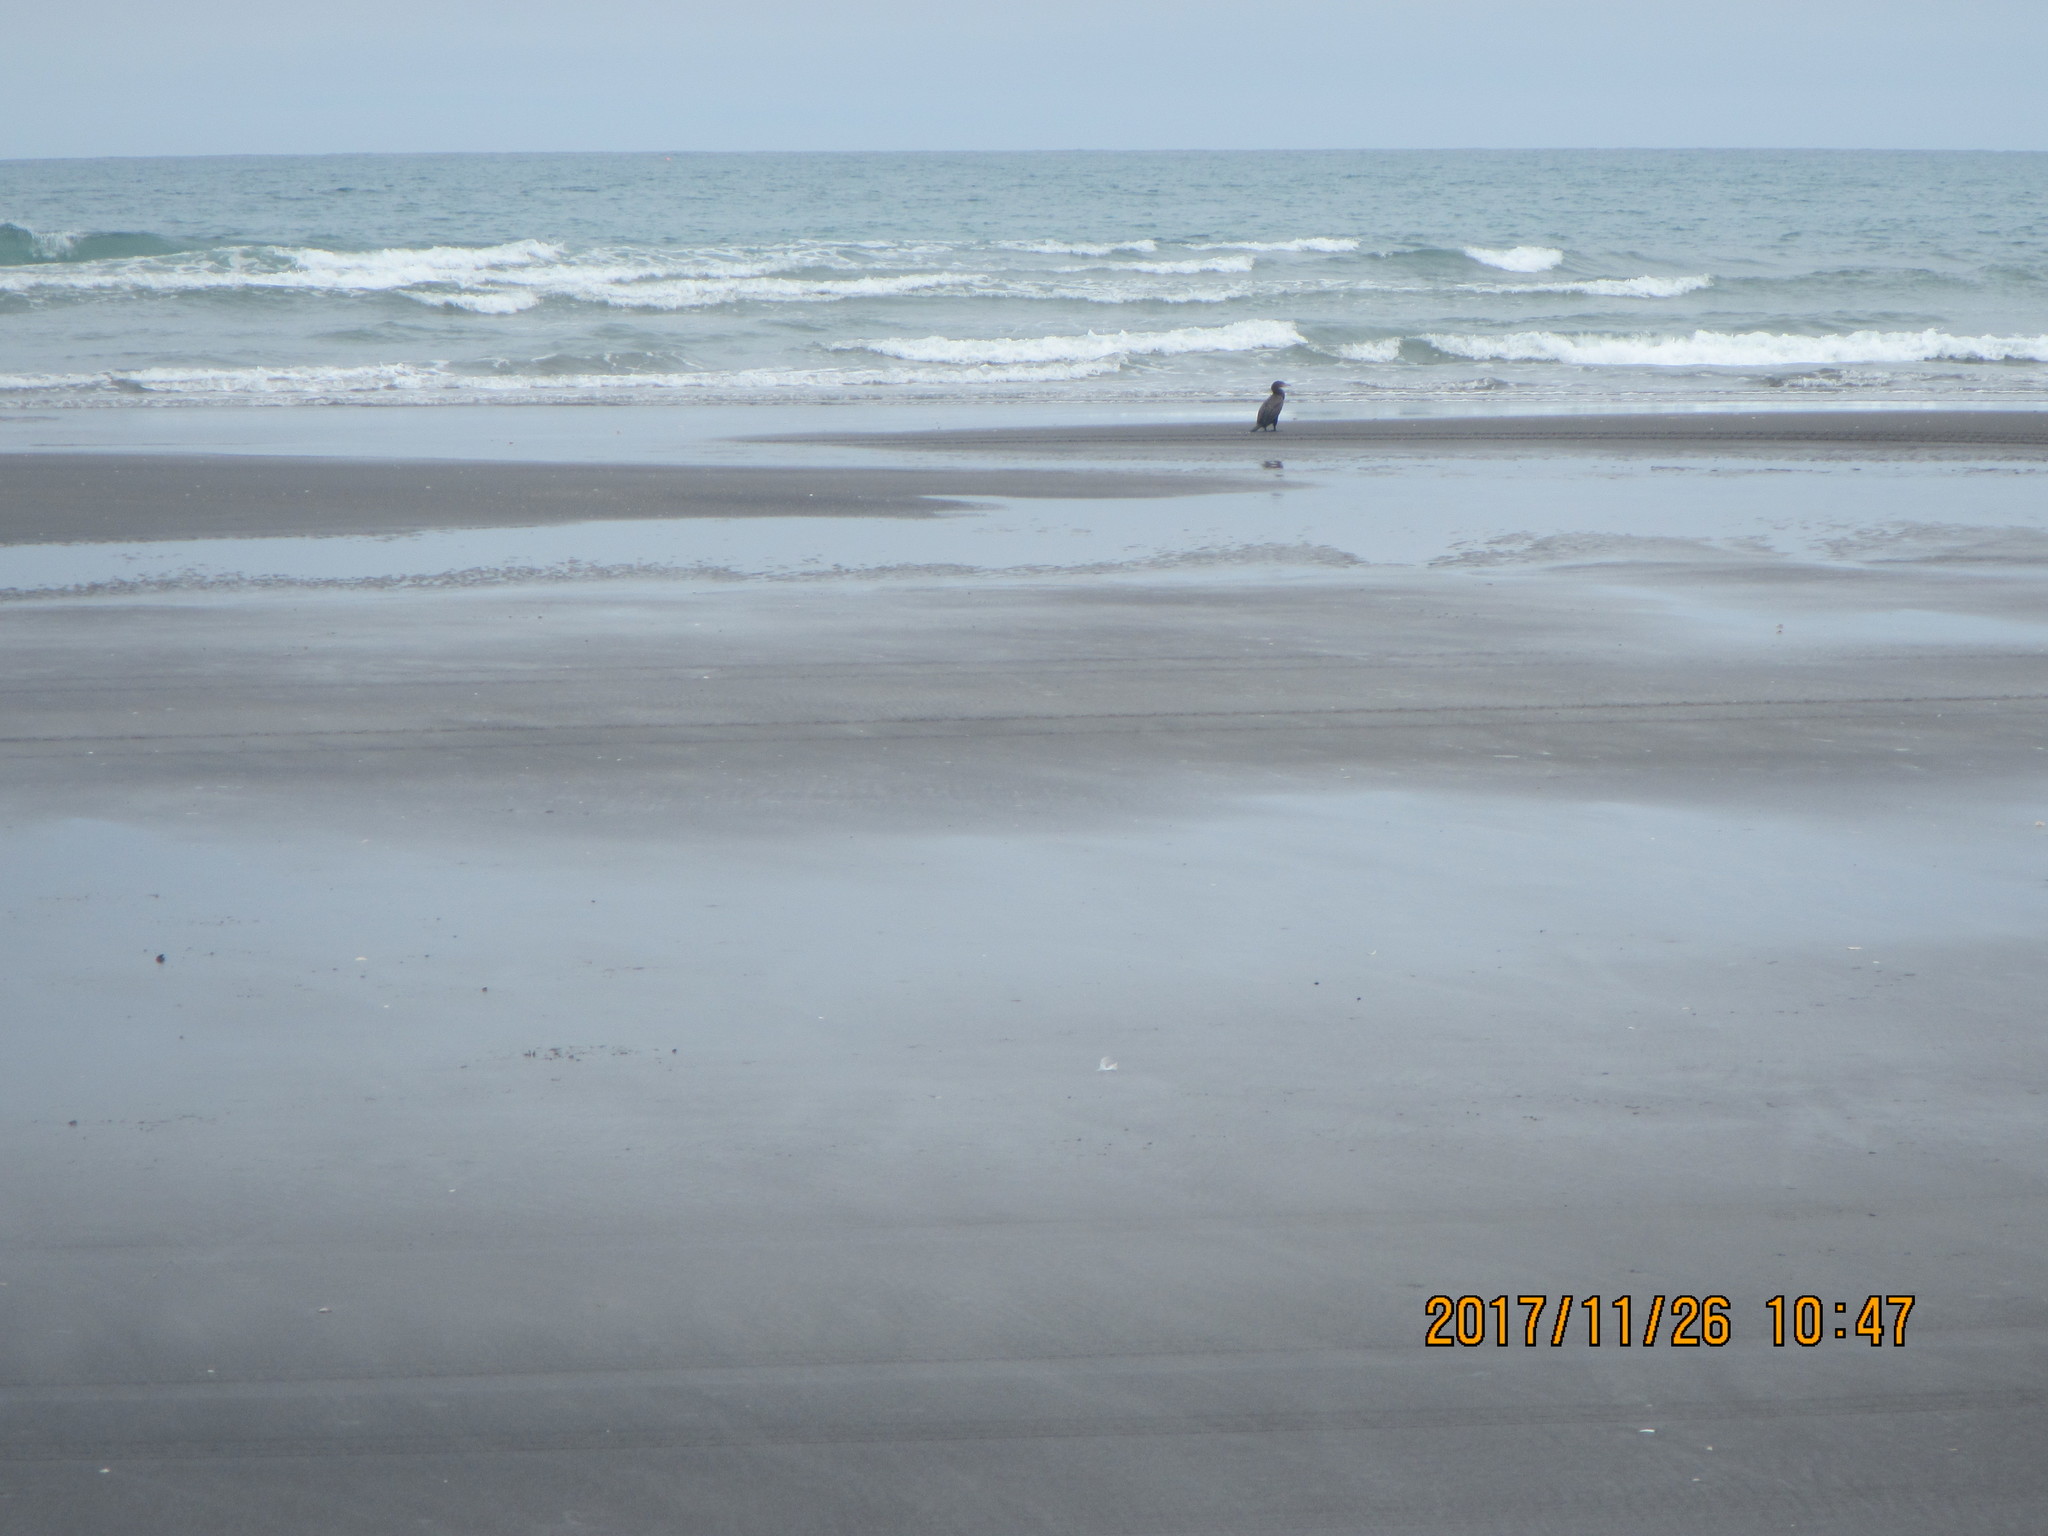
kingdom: Animalia
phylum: Chordata
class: Aves
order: Suliformes
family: Phalacrocoracidae
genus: Phalacrocorax
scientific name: Phalacrocorax carbo
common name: Great cormorant
